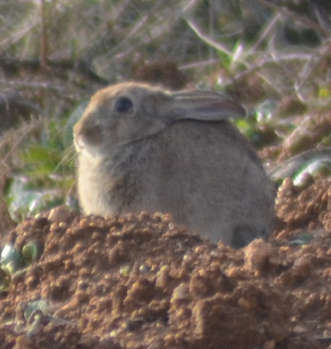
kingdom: Animalia
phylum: Chordata
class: Mammalia
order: Lagomorpha
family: Leporidae
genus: Oryctolagus
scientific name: Oryctolagus cuniculus
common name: European rabbit
